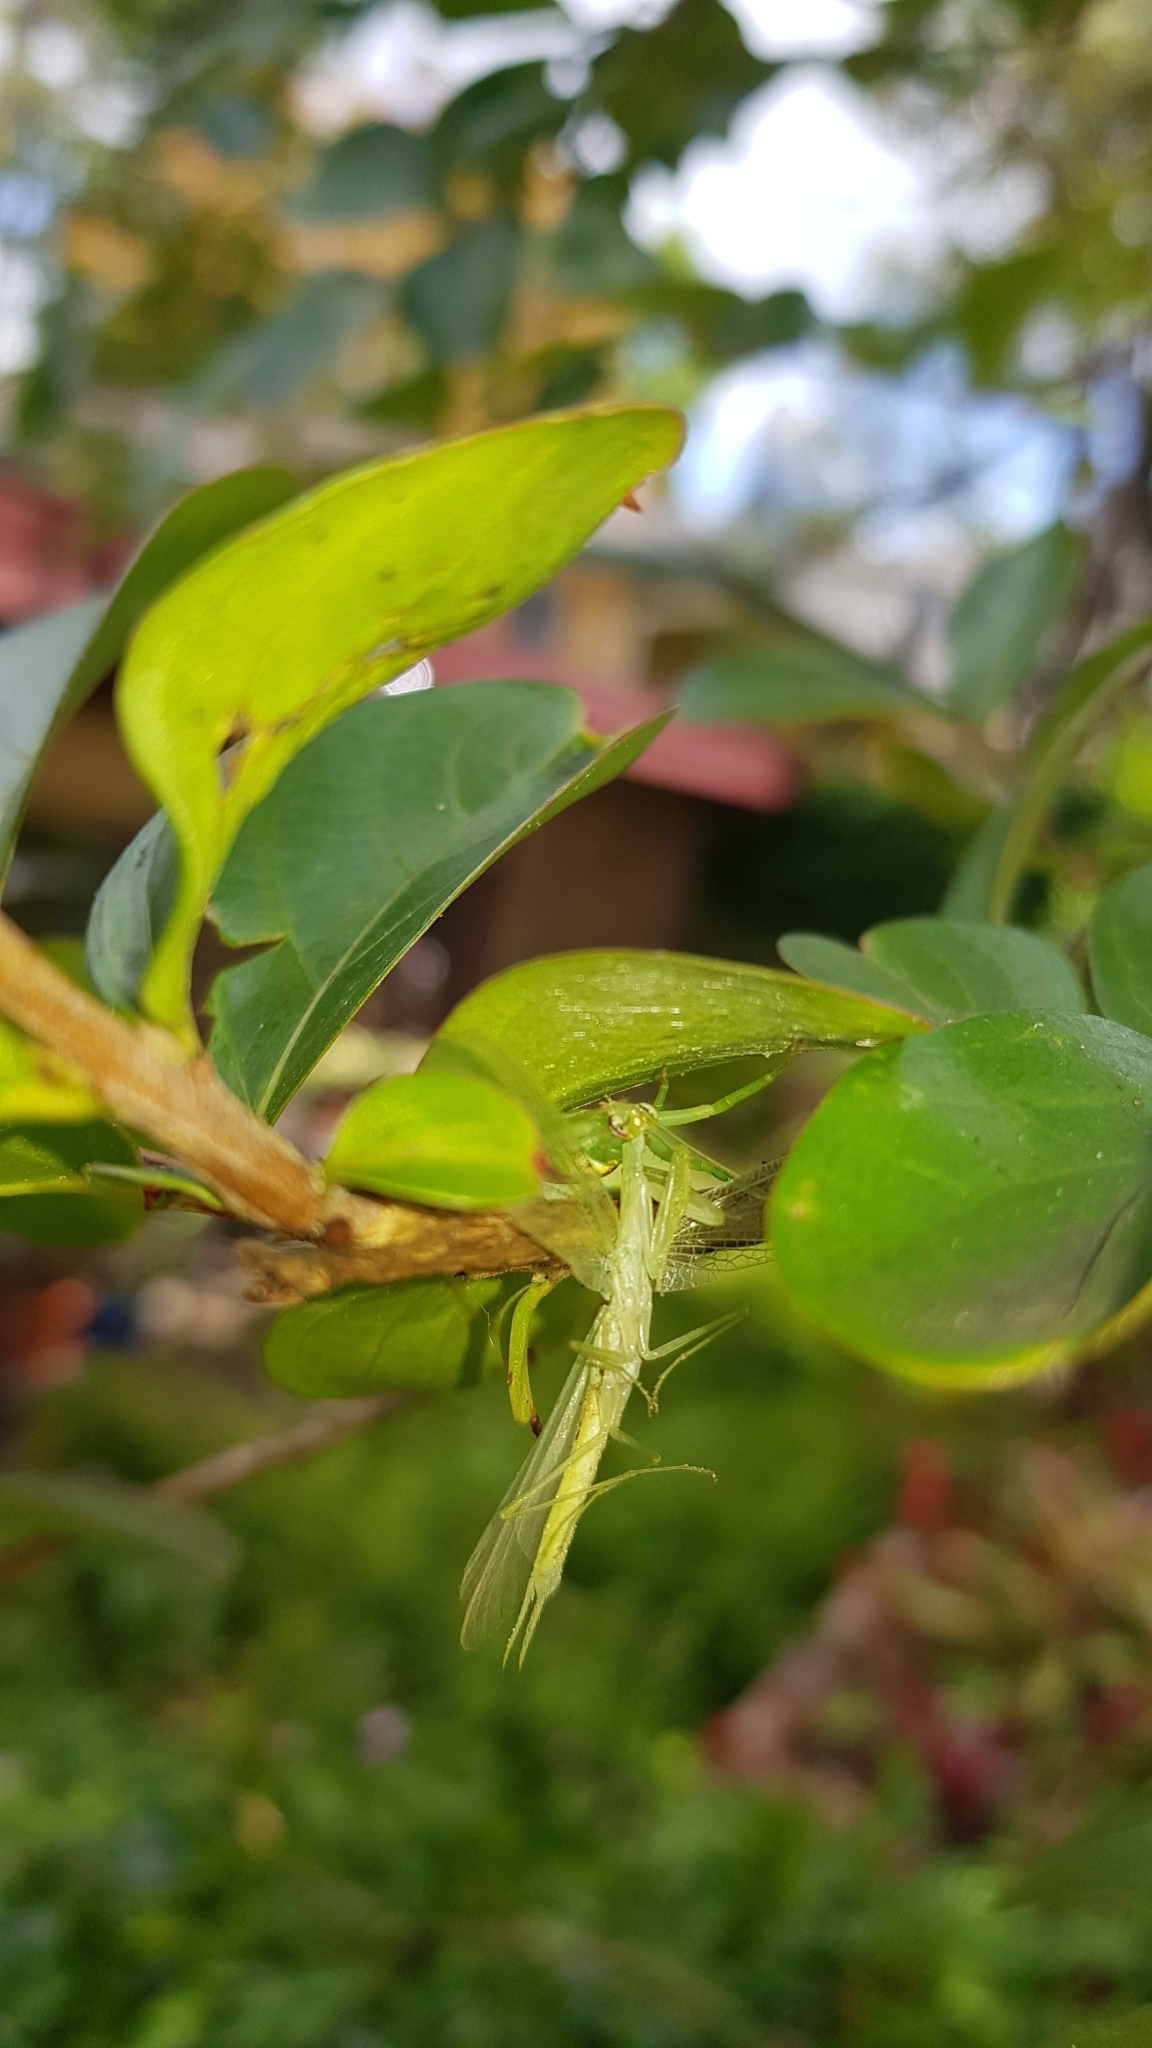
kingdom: Animalia
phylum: Arthropoda
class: Insecta
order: Mantodea
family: Nanomantidae
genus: Kongobatha
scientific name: Kongobatha diademata
